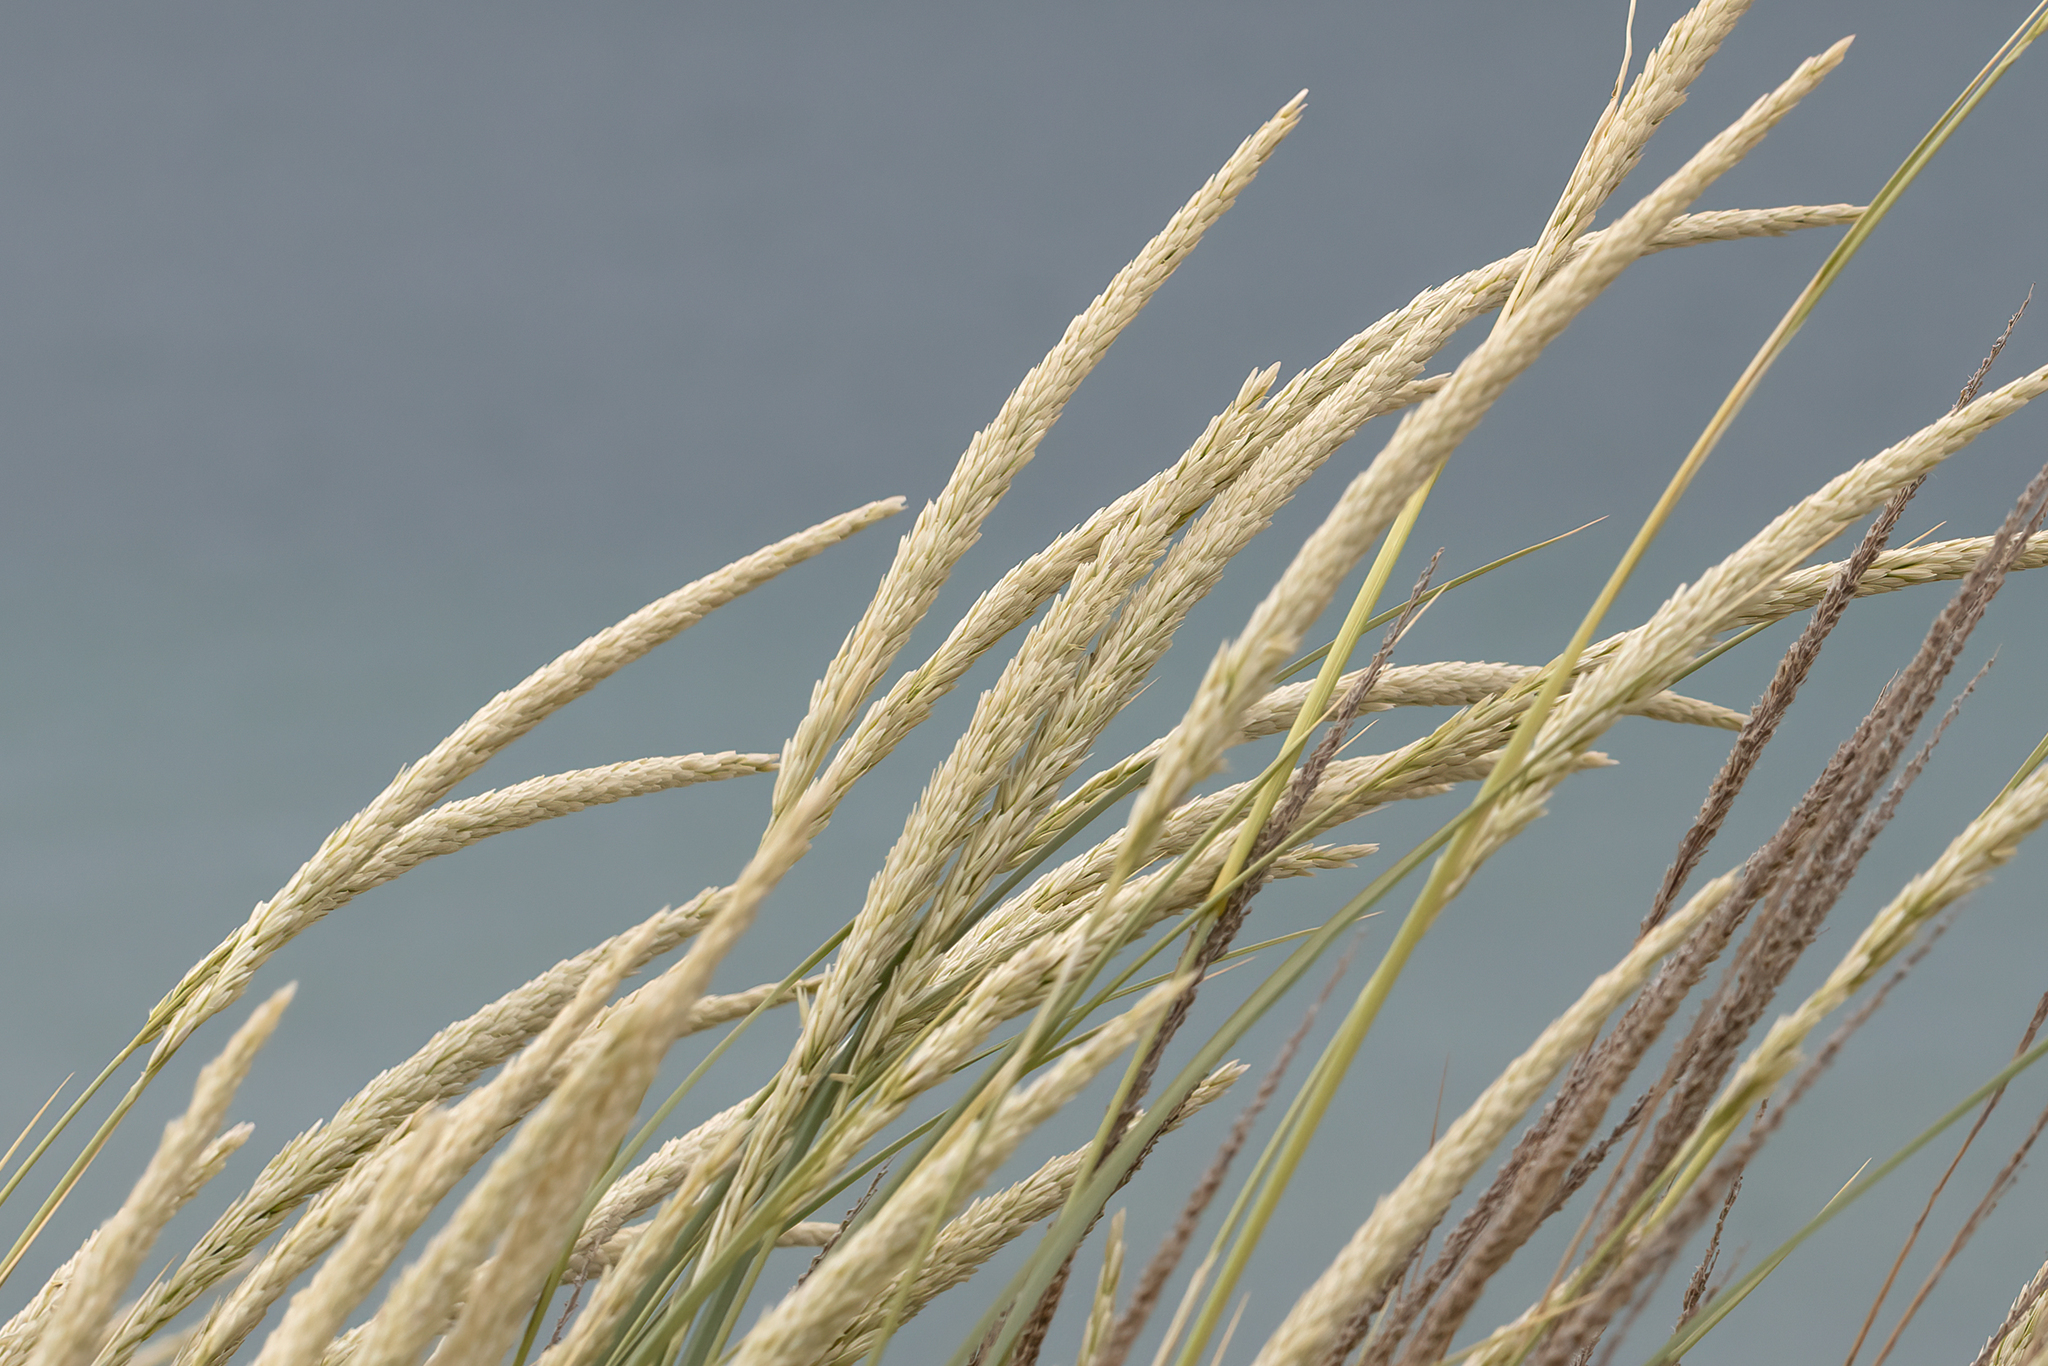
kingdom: Plantae
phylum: Tracheophyta
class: Liliopsida
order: Poales
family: Poaceae
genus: Calamagrostis
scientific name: Calamagrostis arenaria
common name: European beachgrass
